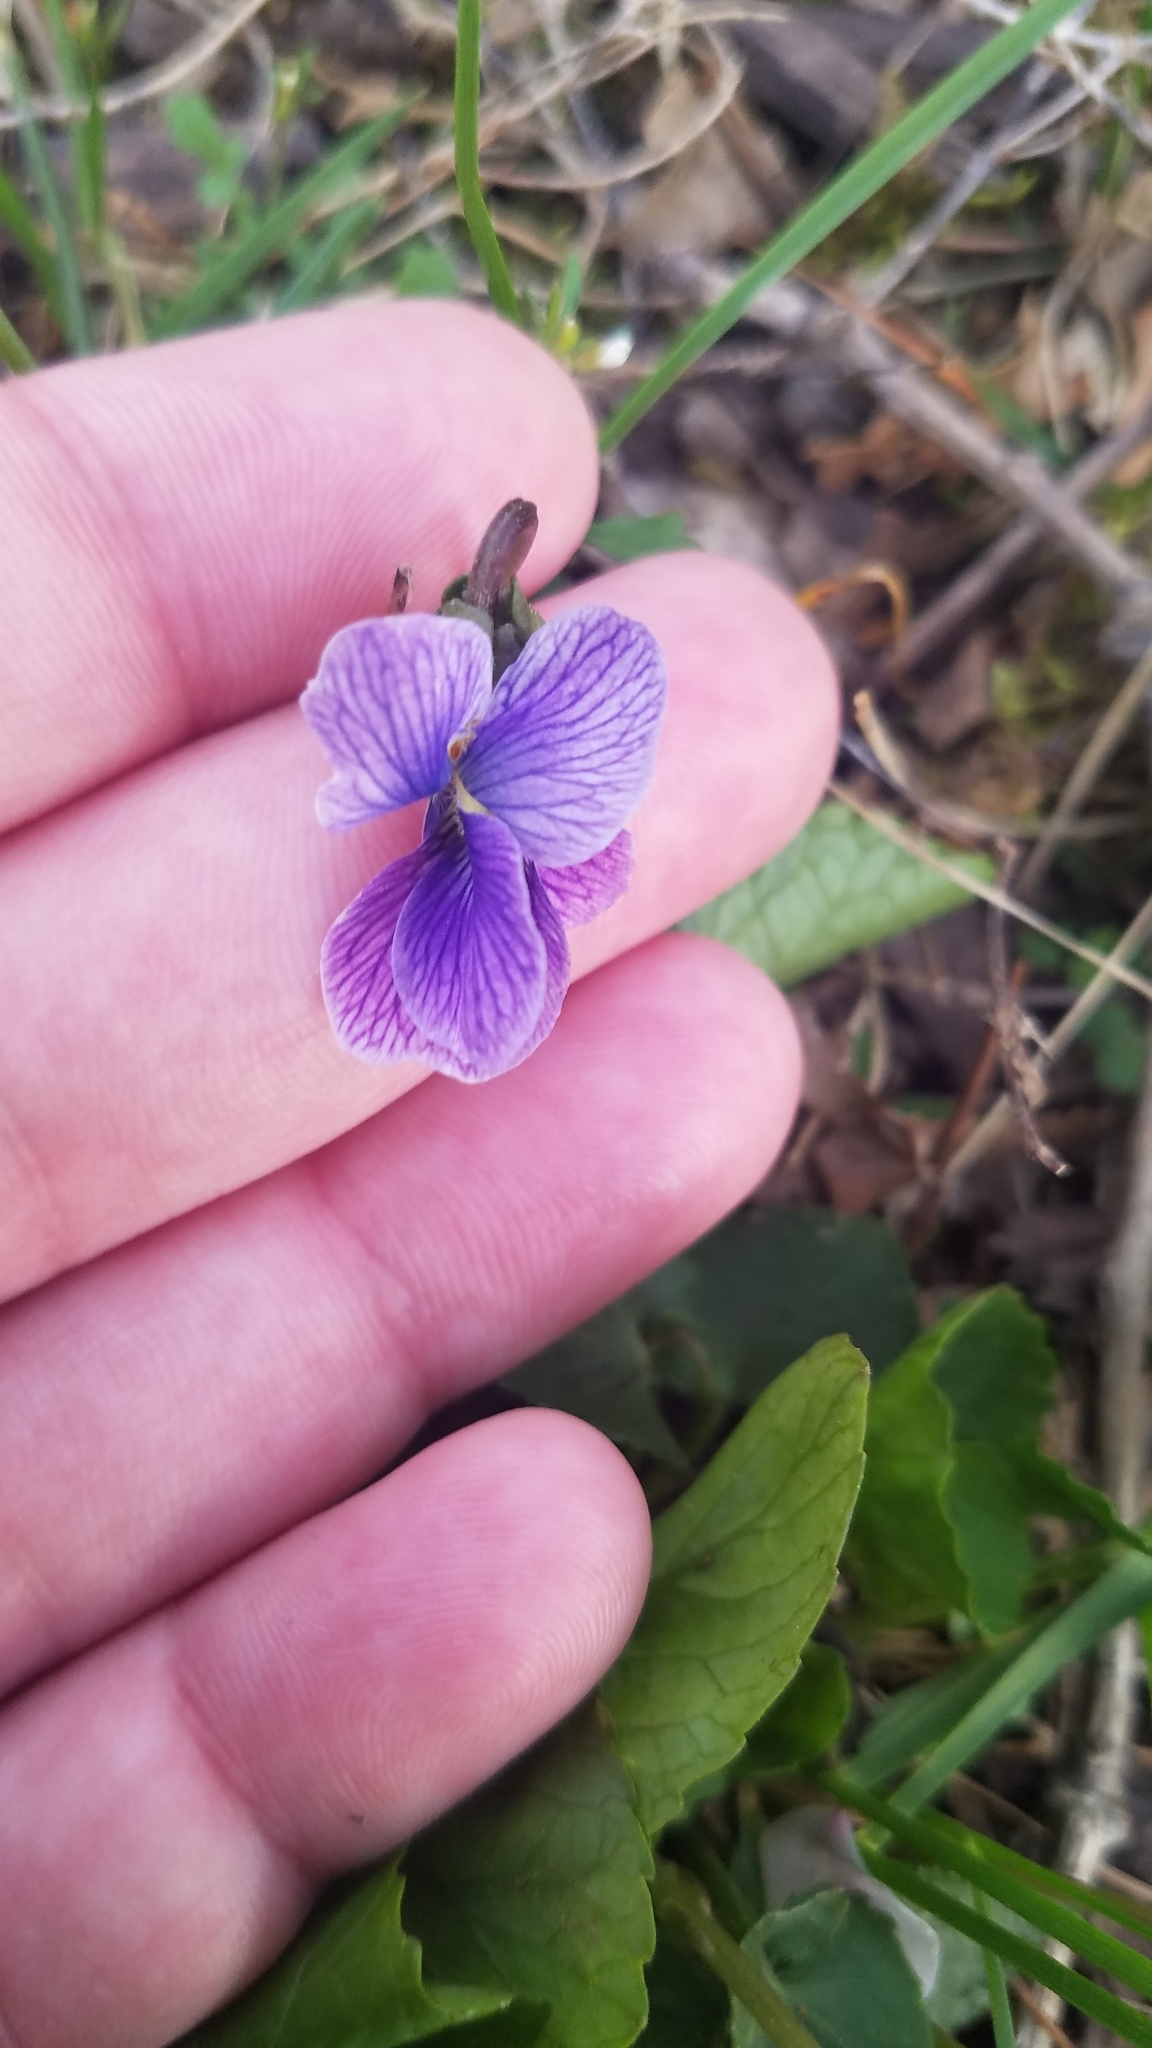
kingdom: Plantae
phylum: Tracheophyta
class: Magnoliopsida
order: Malpighiales
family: Violaceae
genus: Viola
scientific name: Viola sororia
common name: Dooryard violet
